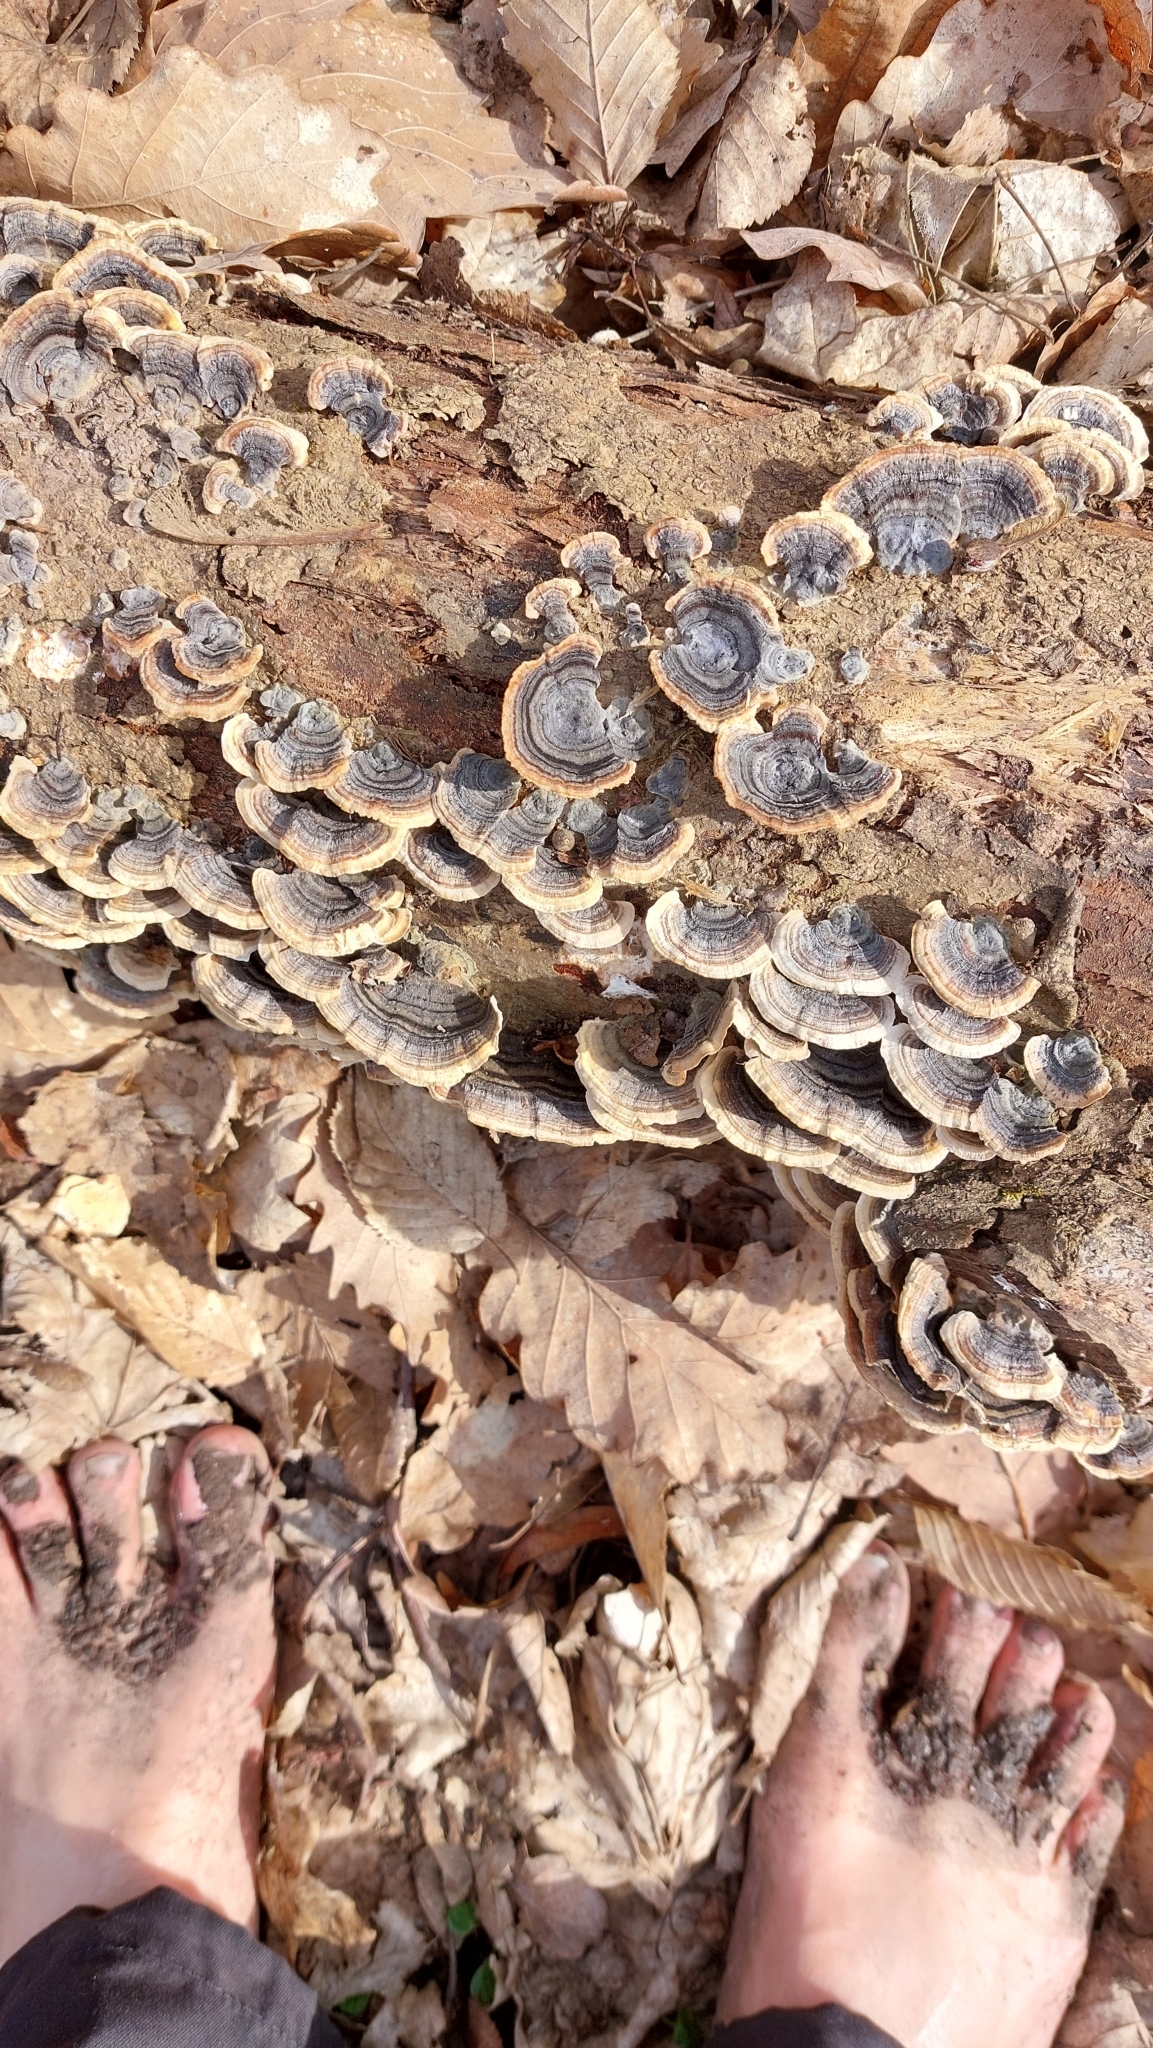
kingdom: Fungi
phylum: Basidiomycota
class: Agaricomycetes
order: Polyporales
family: Polyporaceae
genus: Trametes
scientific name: Trametes versicolor
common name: Turkeytail
